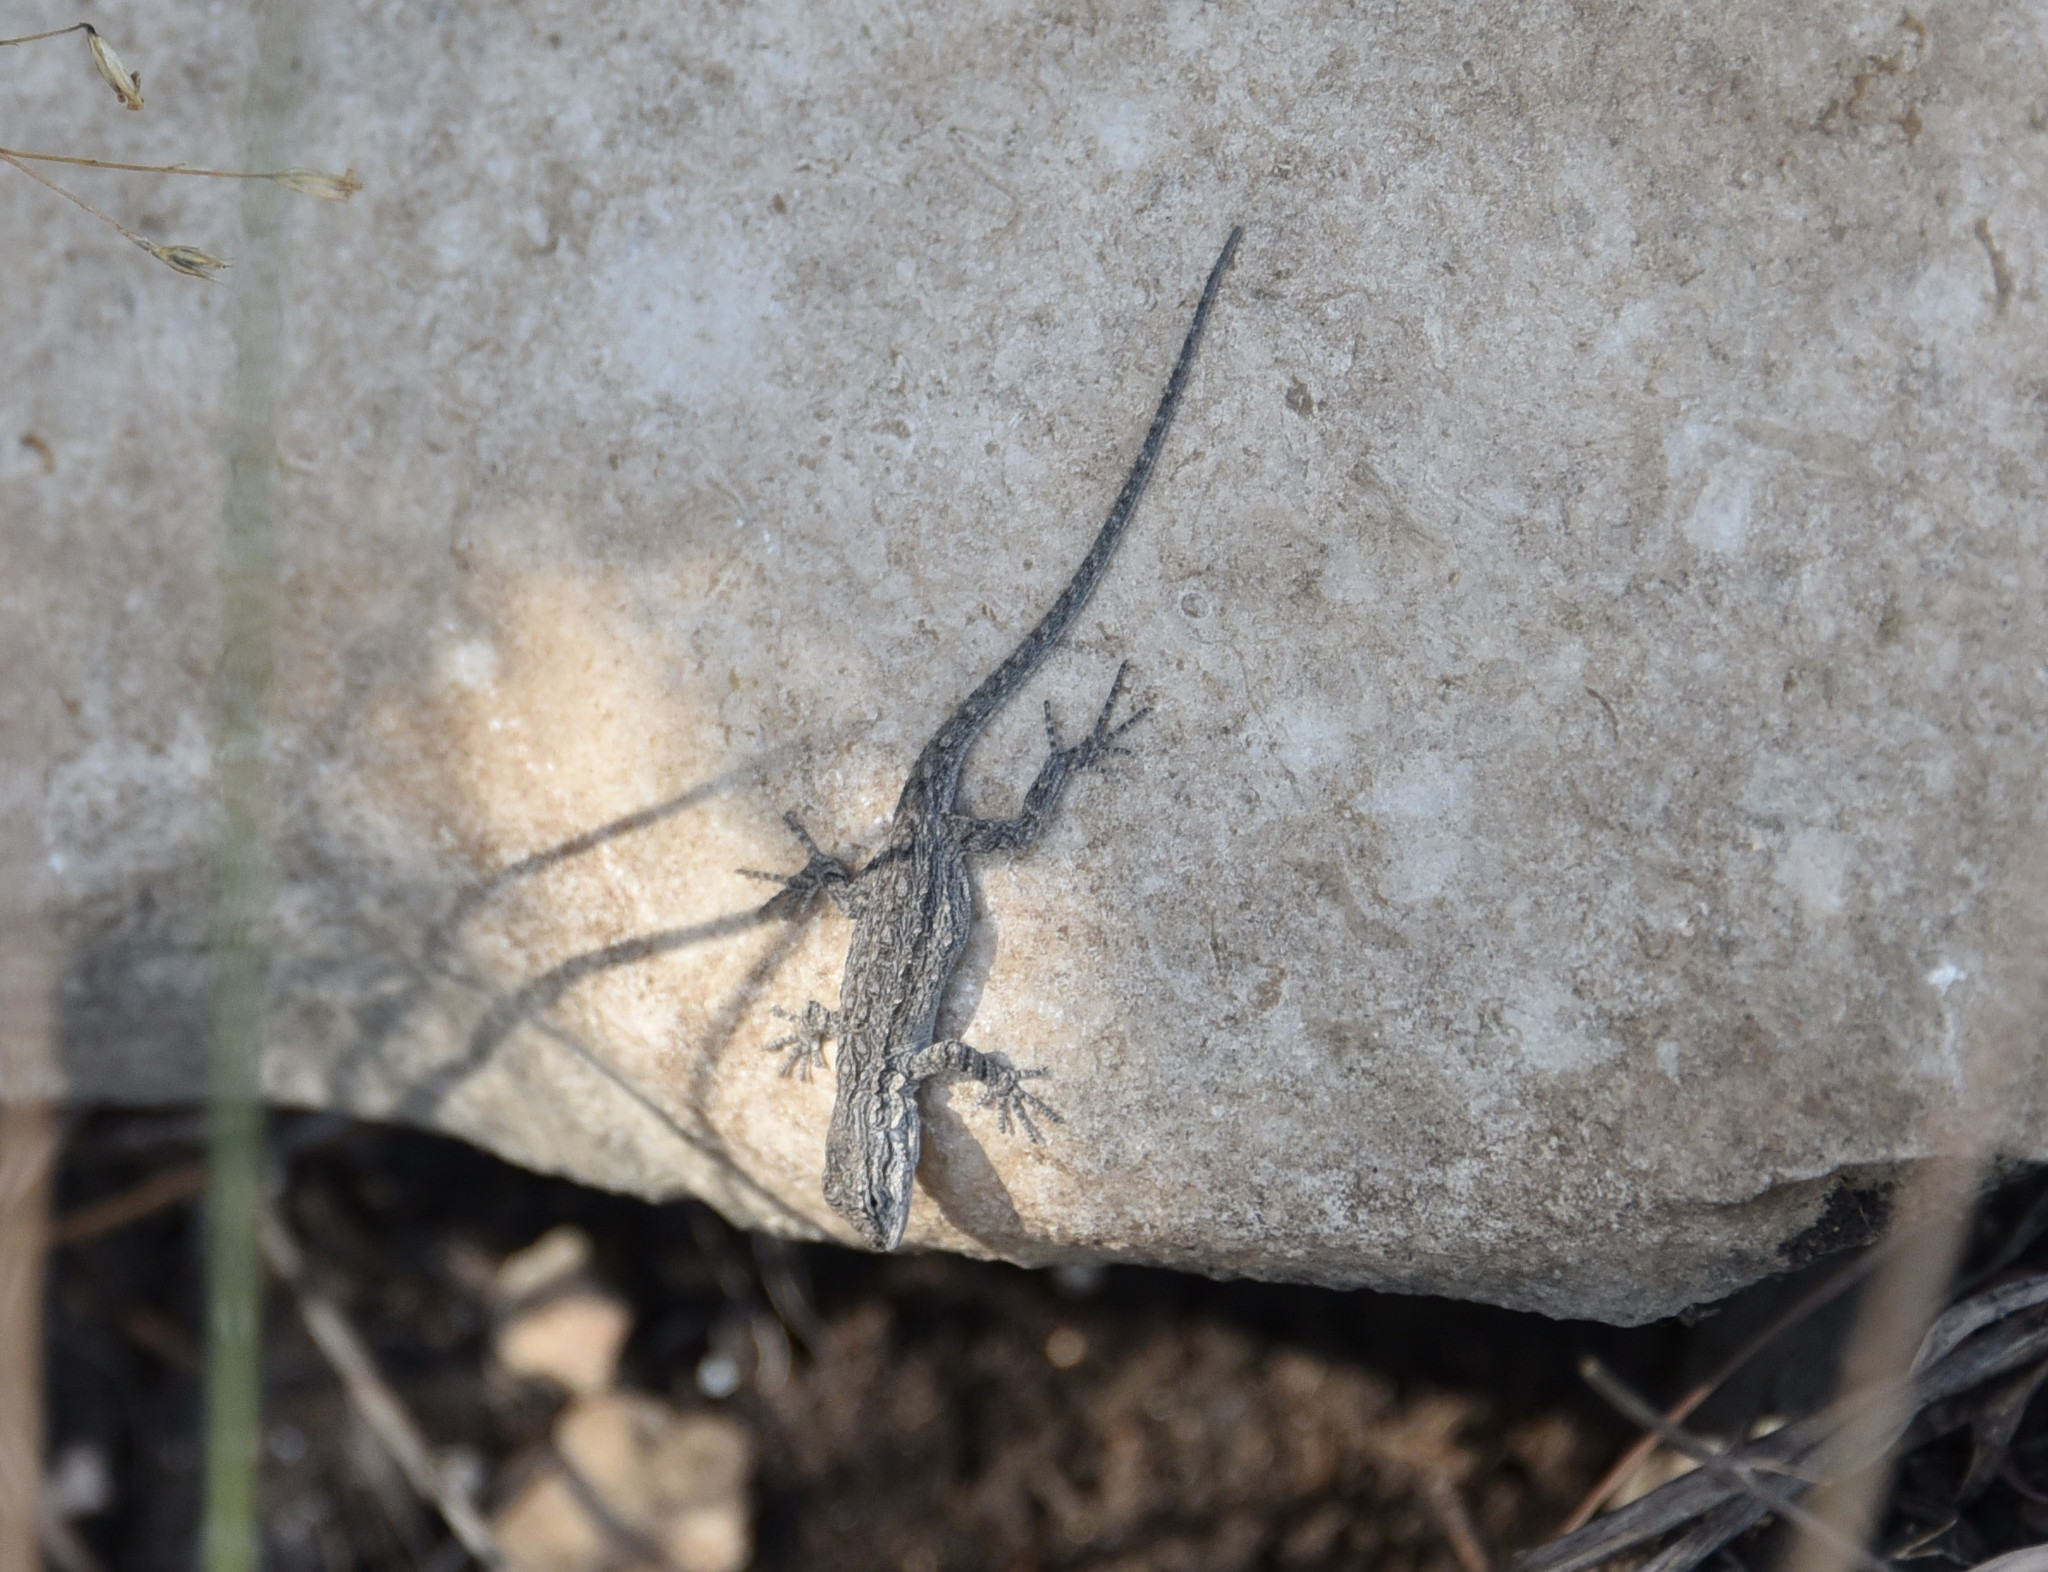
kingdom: Animalia
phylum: Chordata
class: Squamata
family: Phrynosomatidae
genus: Urosaurus
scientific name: Urosaurus ornatus
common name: Ornate tree lizard
